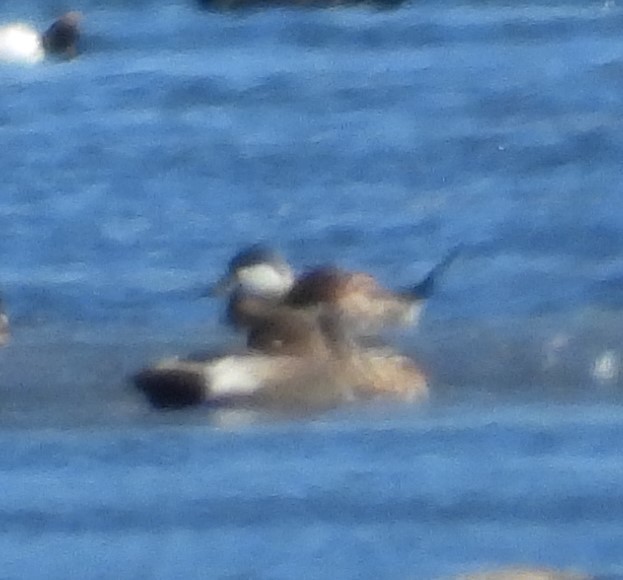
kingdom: Animalia
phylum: Chordata
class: Aves
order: Anseriformes
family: Anatidae
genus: Oxyura
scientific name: Oxyura jamaicensis
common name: Ruddy duck
